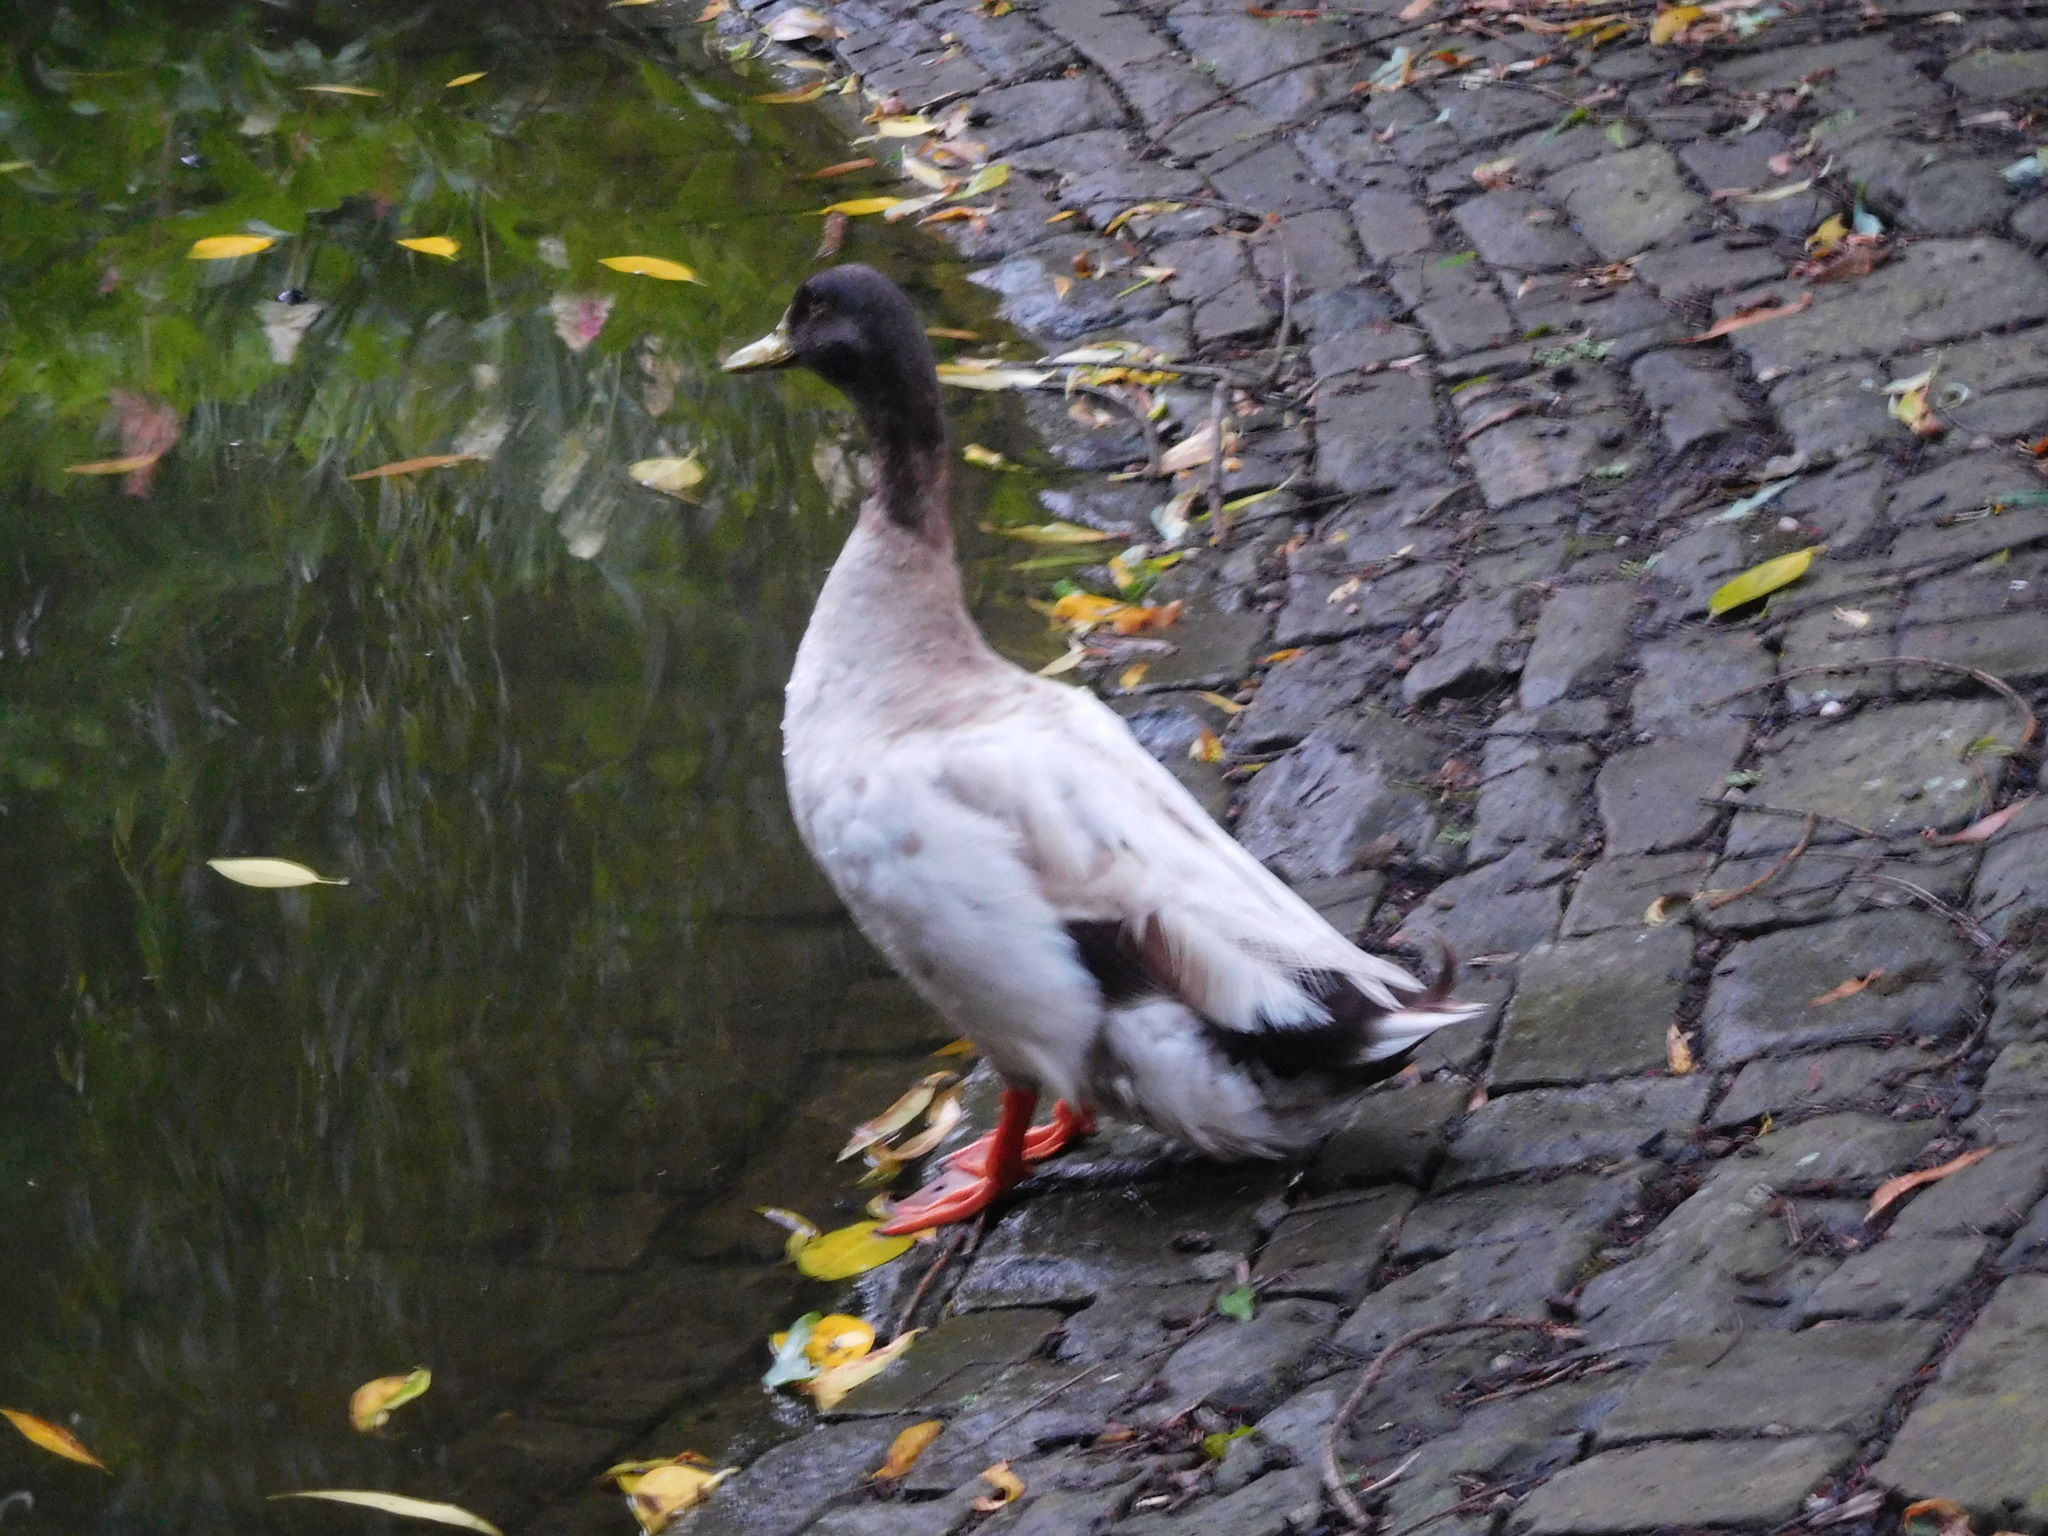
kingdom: Animalia
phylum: Chordata
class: Aves
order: Anseriformes
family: Anatidae
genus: Anas
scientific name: Anas platyrhynchos
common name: Mallard
